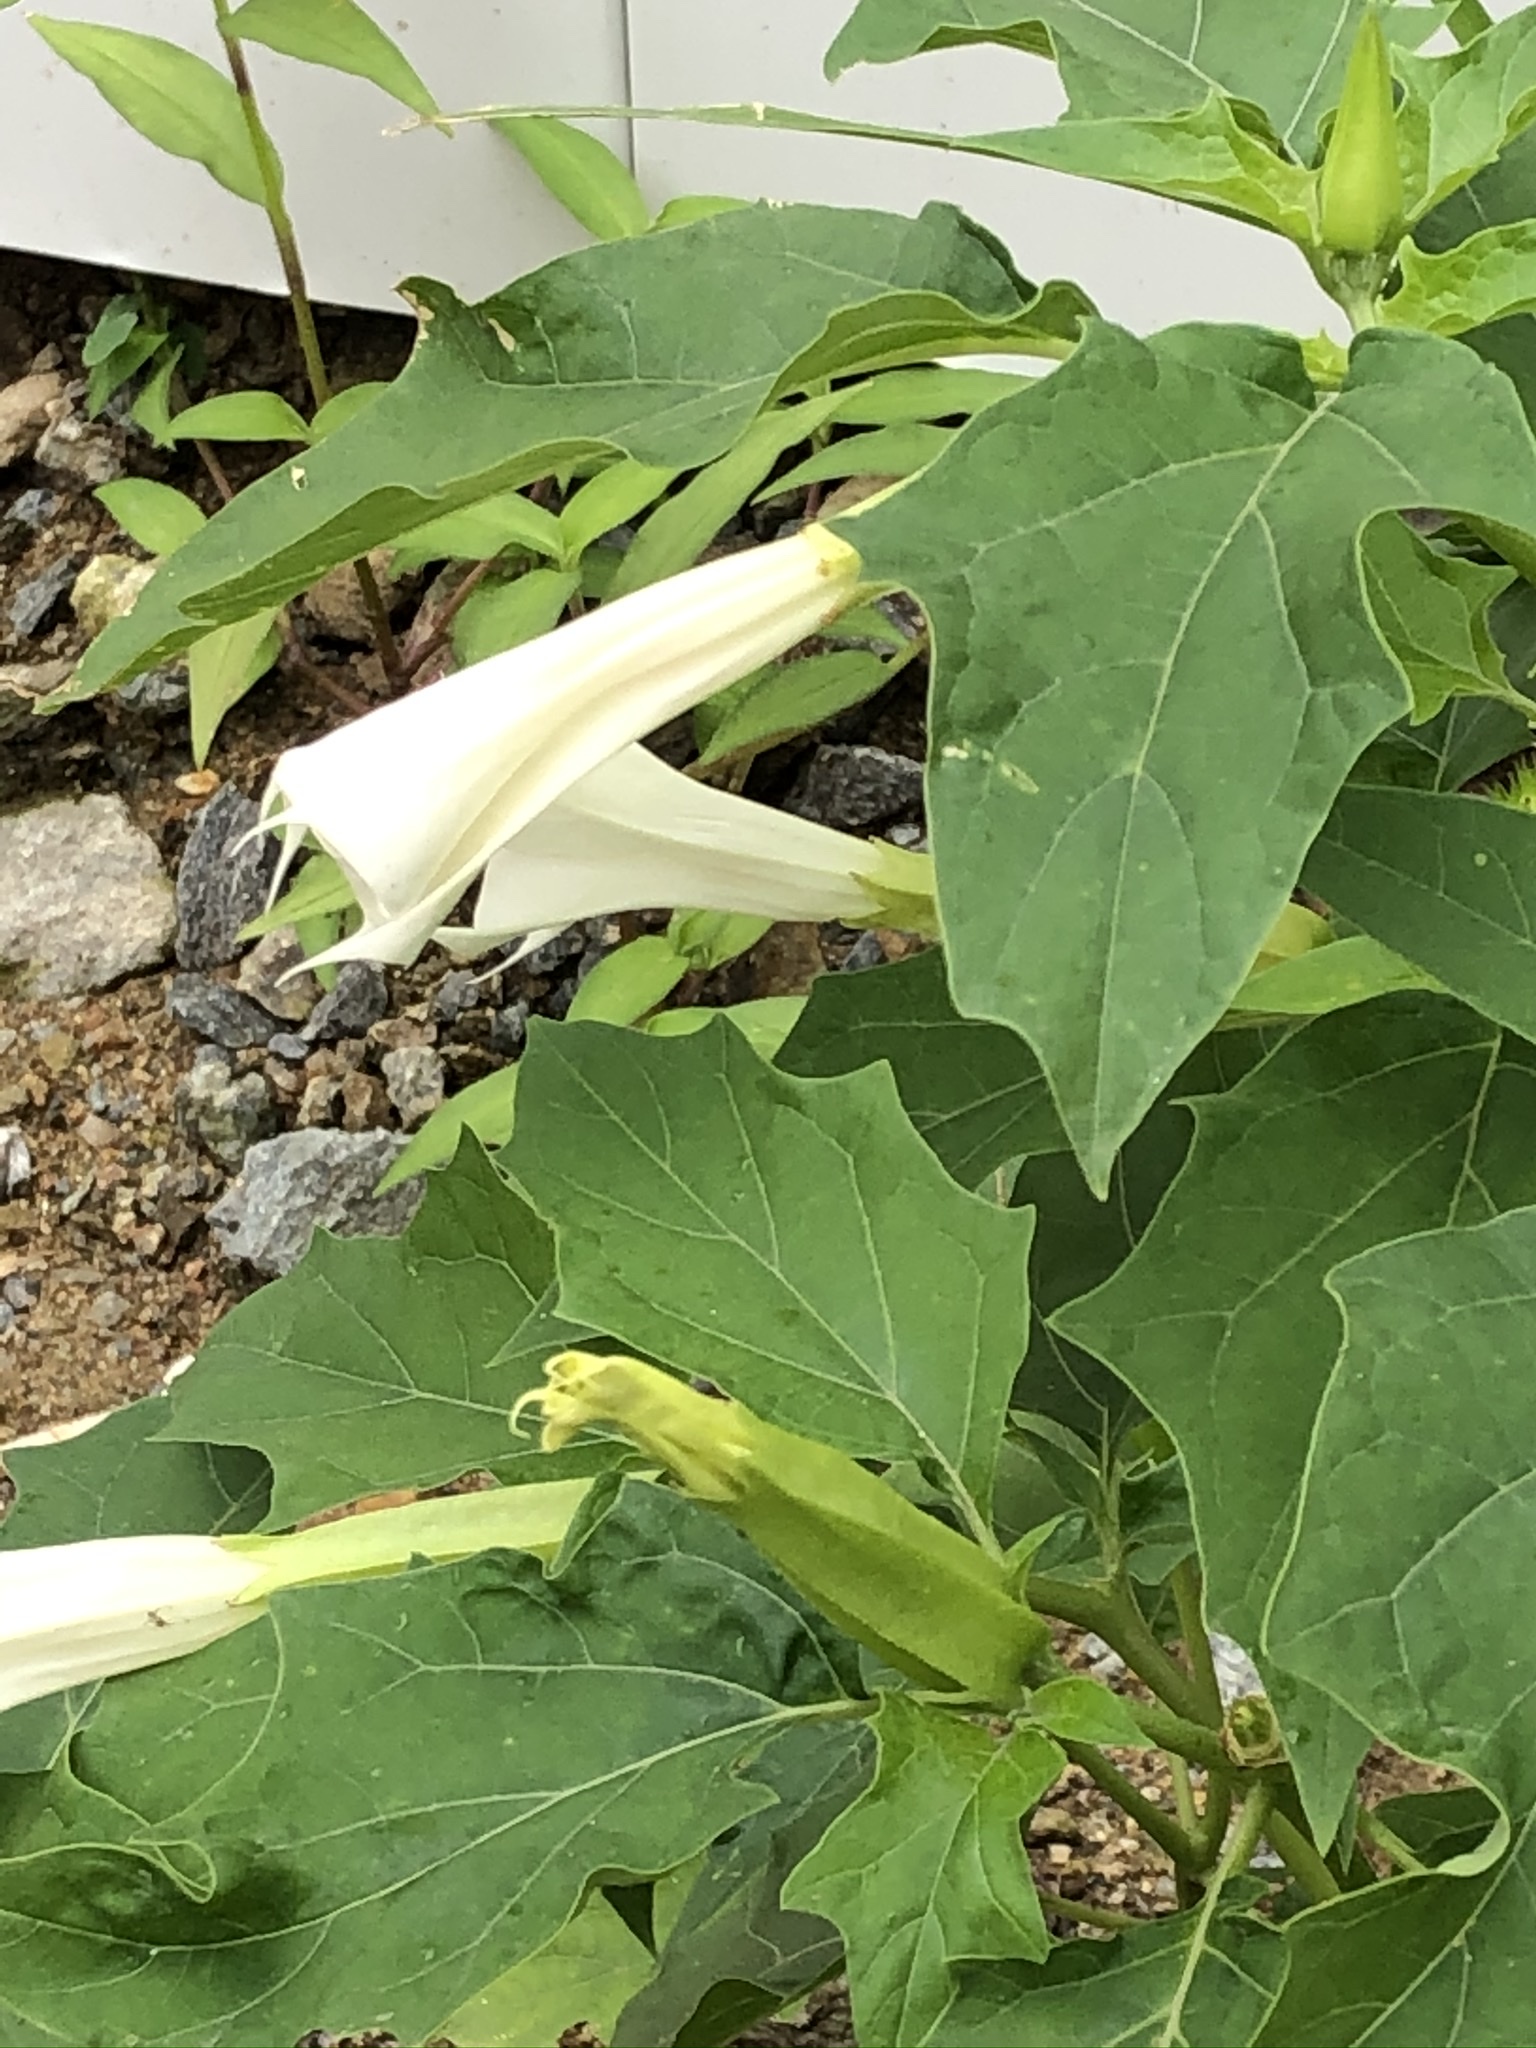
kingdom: Plantae
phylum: Tracheophyta
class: Magnoliopsida
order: Solanales
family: Solanaceae
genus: Datura
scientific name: Datura stramonium
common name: Thorn-apple
